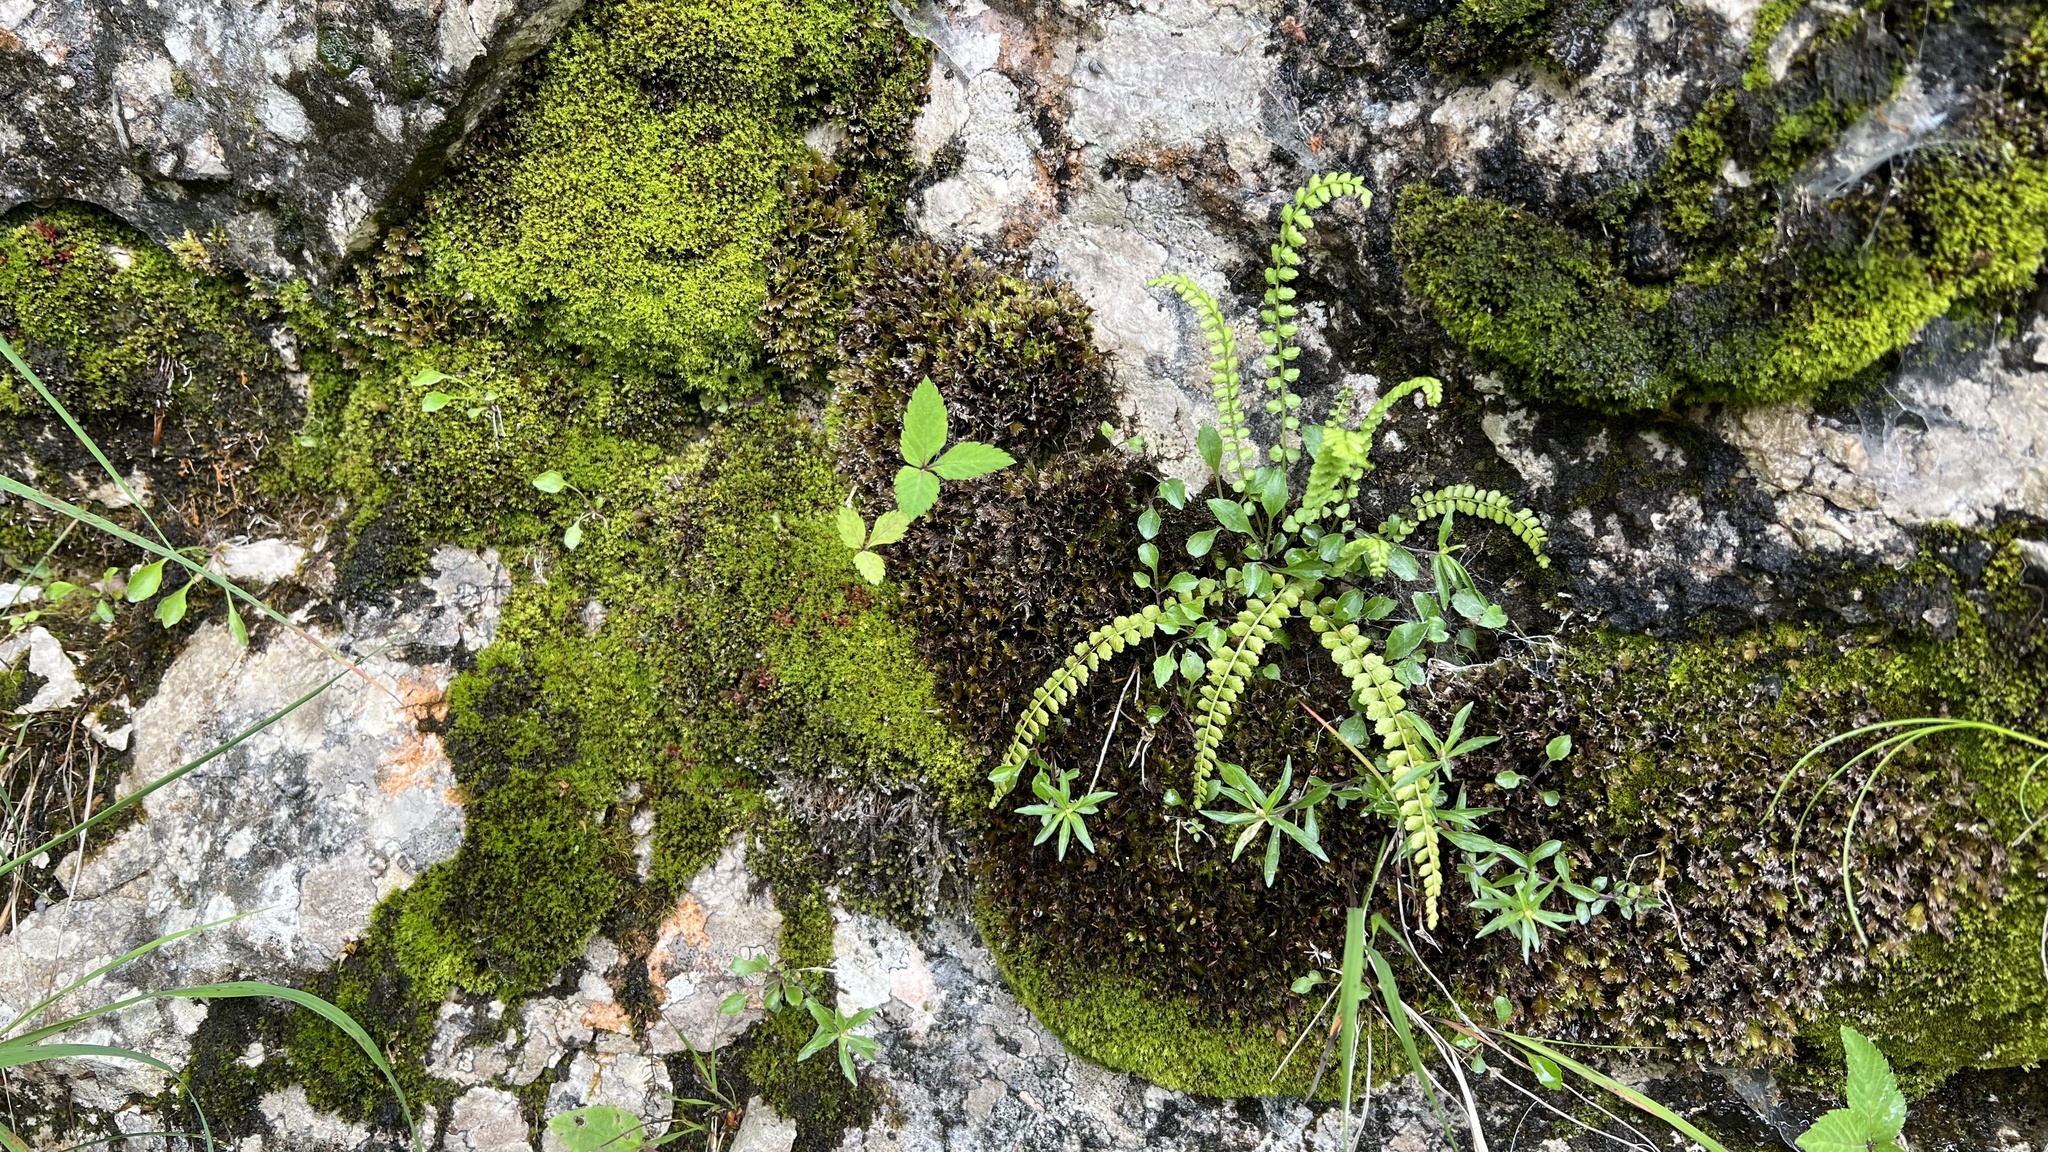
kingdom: Plantae
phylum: Tracheophyta
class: Polypodiopsida
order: Polypodiales
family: Aspleniaceae
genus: Asplenium
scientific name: Asplenium trichomanes
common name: Maidenhair spleenwort
